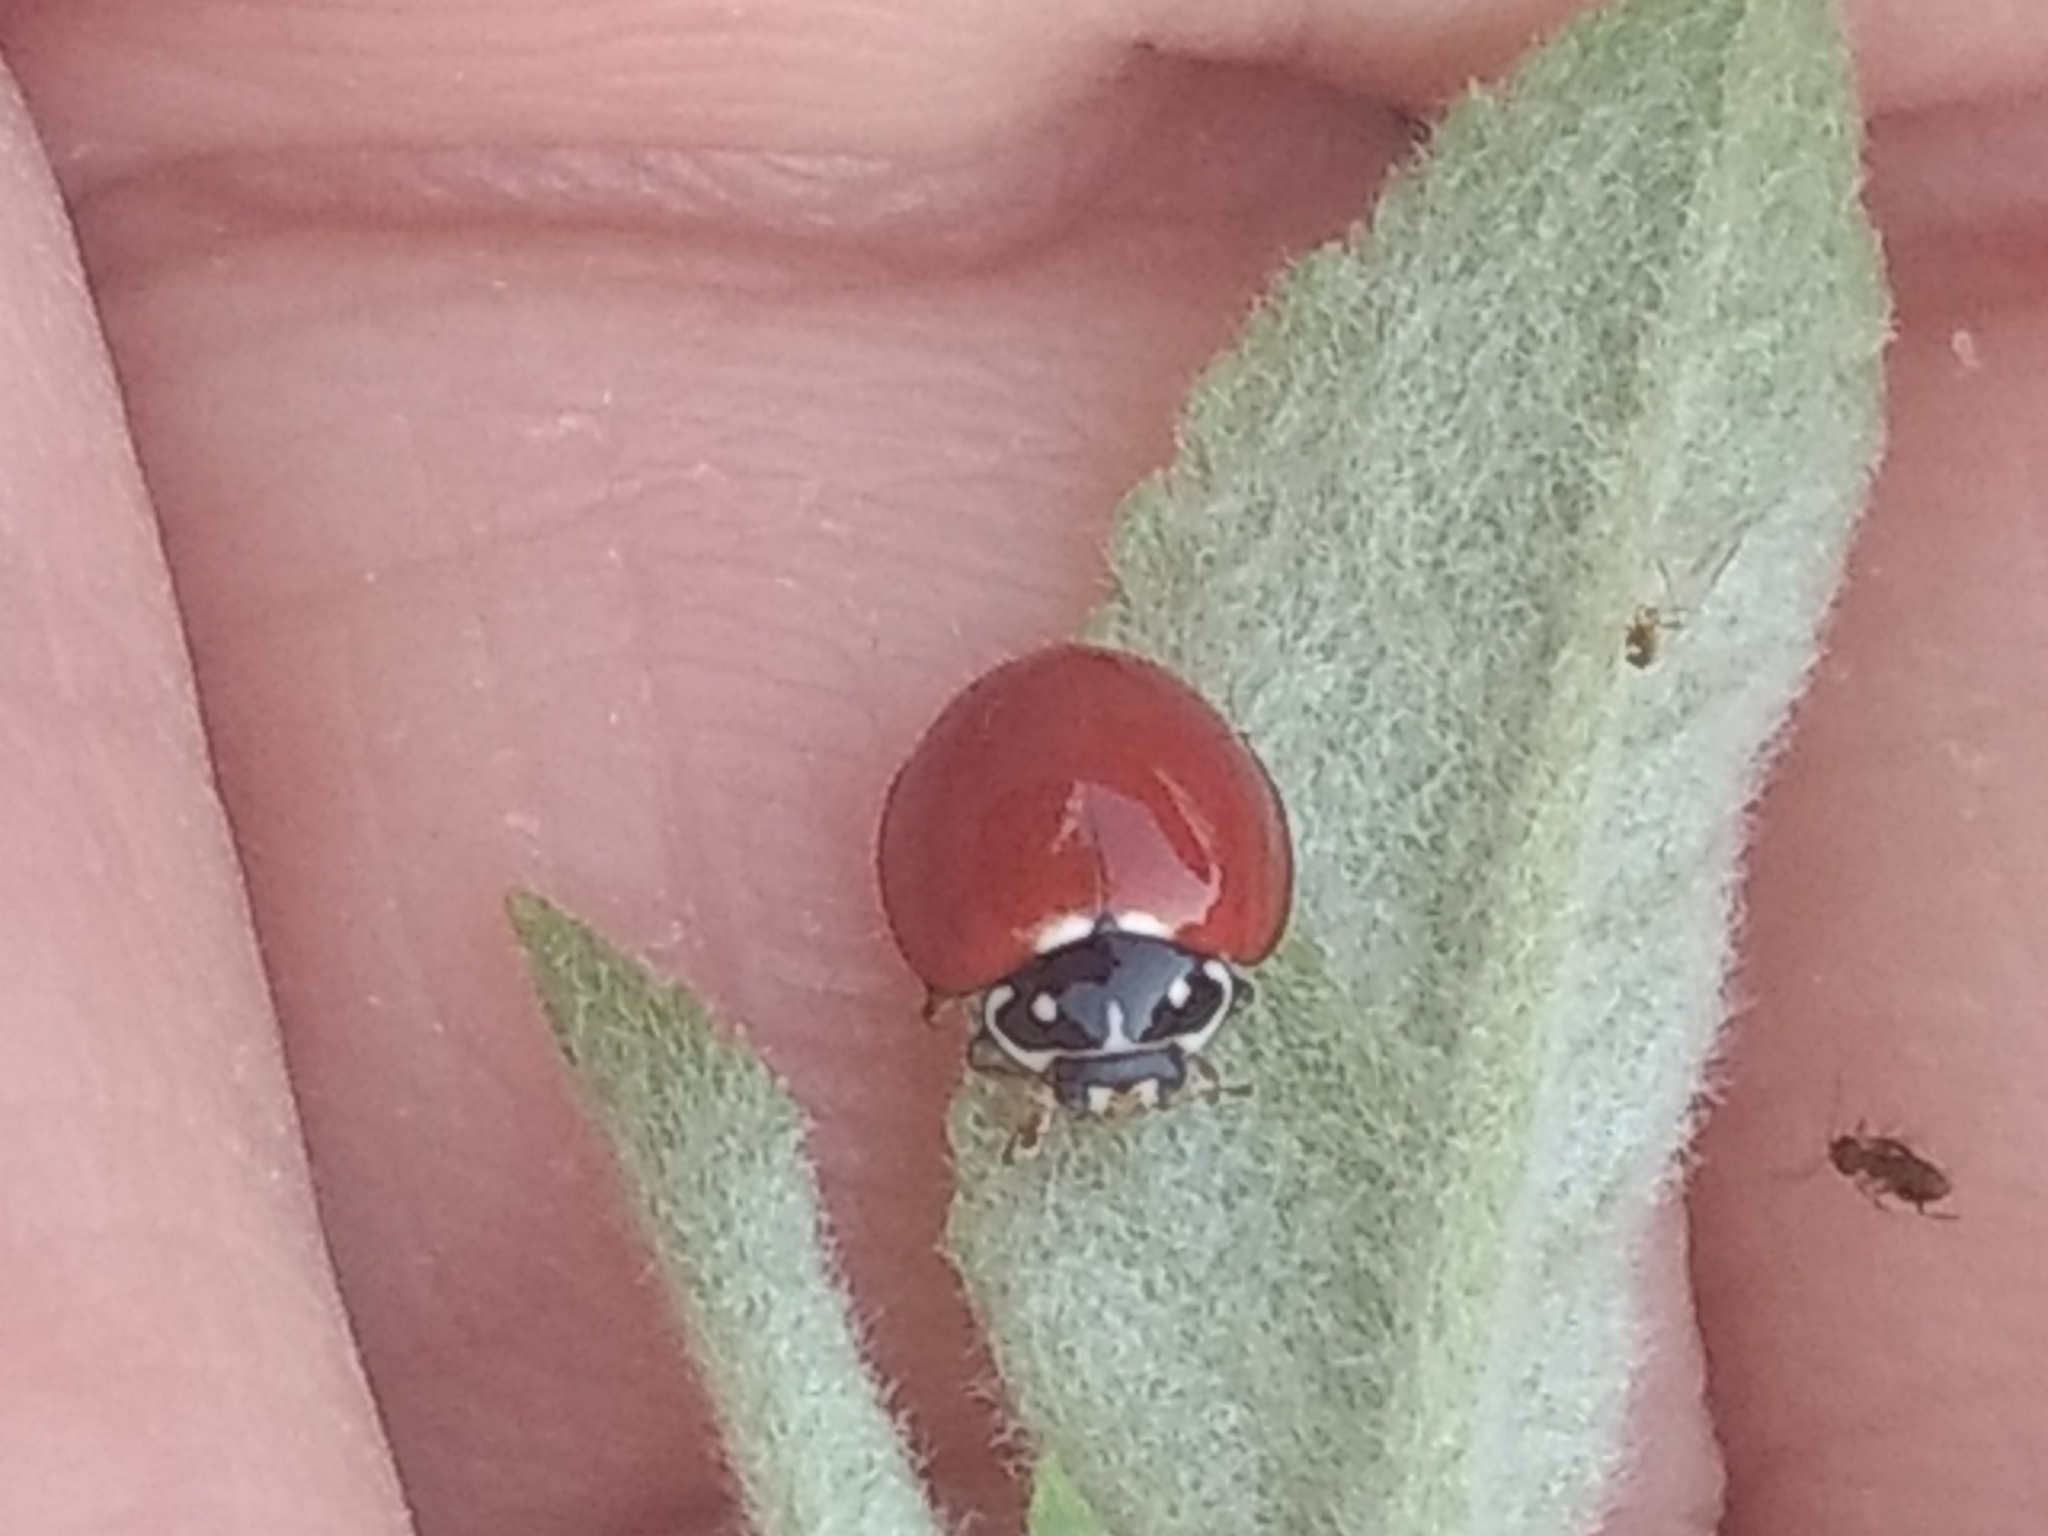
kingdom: Animalia
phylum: Arthropoda
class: Insecta
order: Coleoptera
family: Coccinellidae
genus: Cycloneda
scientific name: Cycloneda sanguinea
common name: Ladybird beetle
